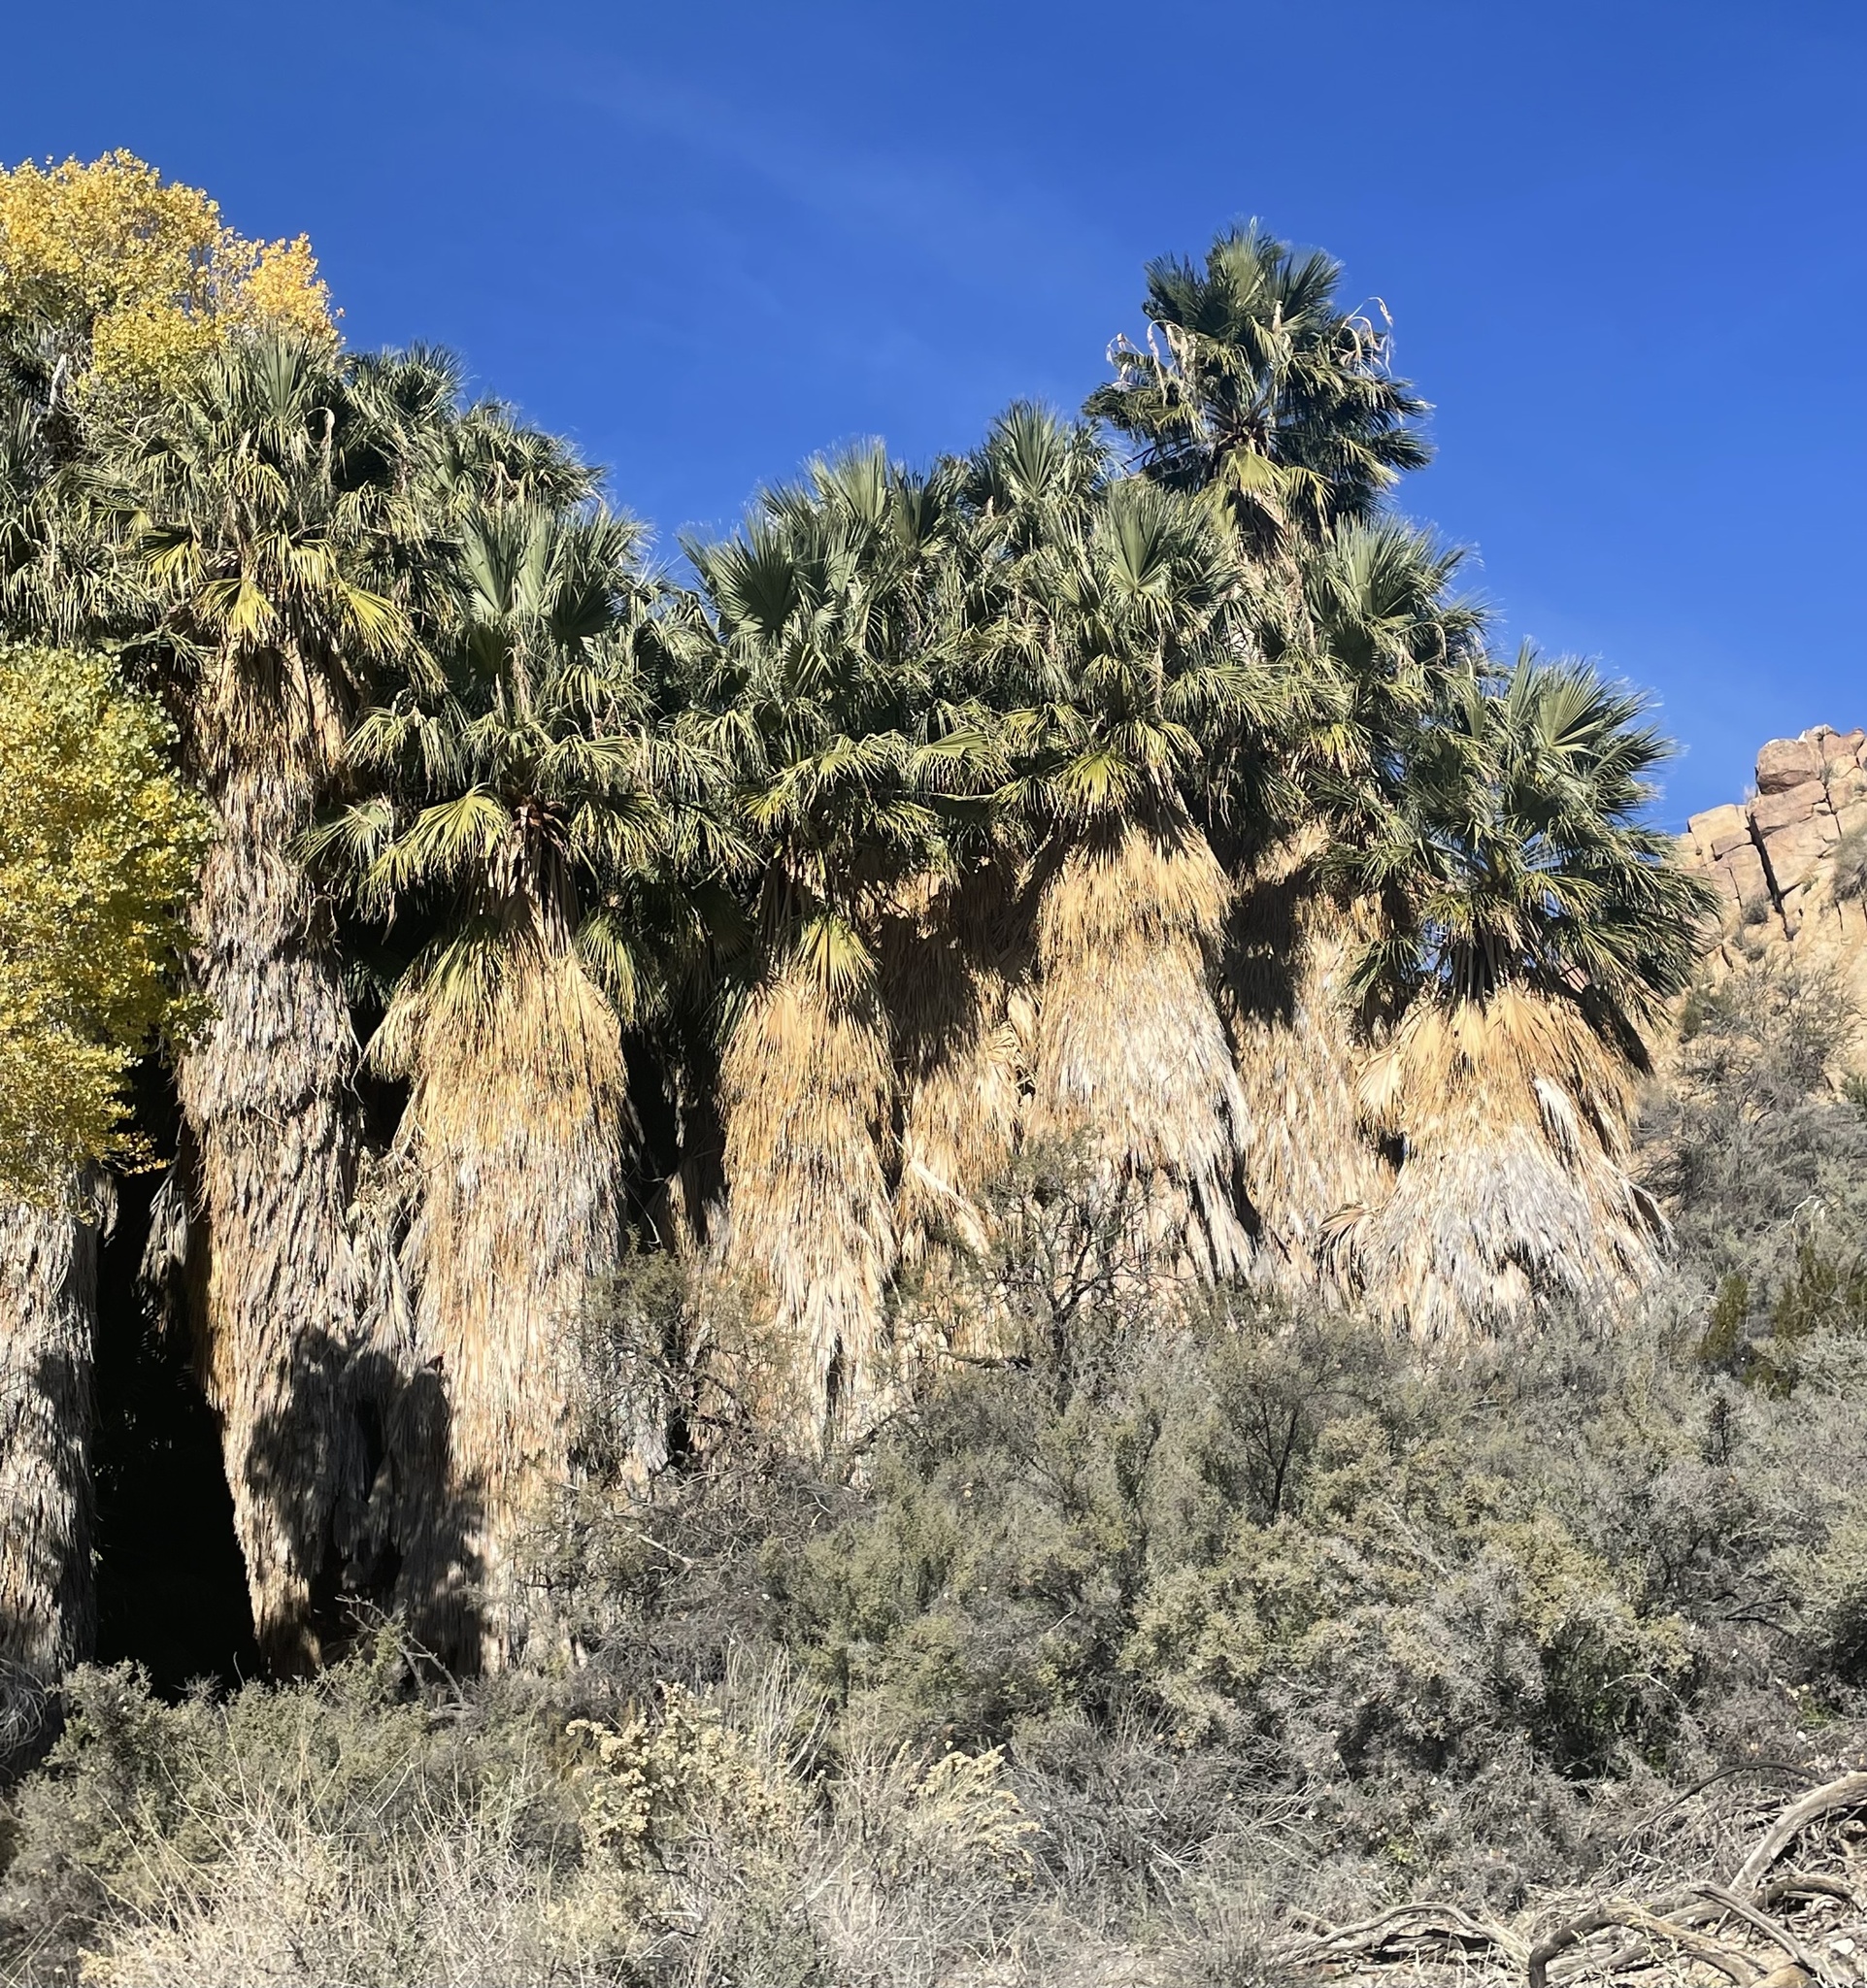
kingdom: Plantae
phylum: Tracheophyta
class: Liliopsida
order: Arecales
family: Arecaceae
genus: Washingtonia
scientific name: Washingtonia filifera
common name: California fan palm
